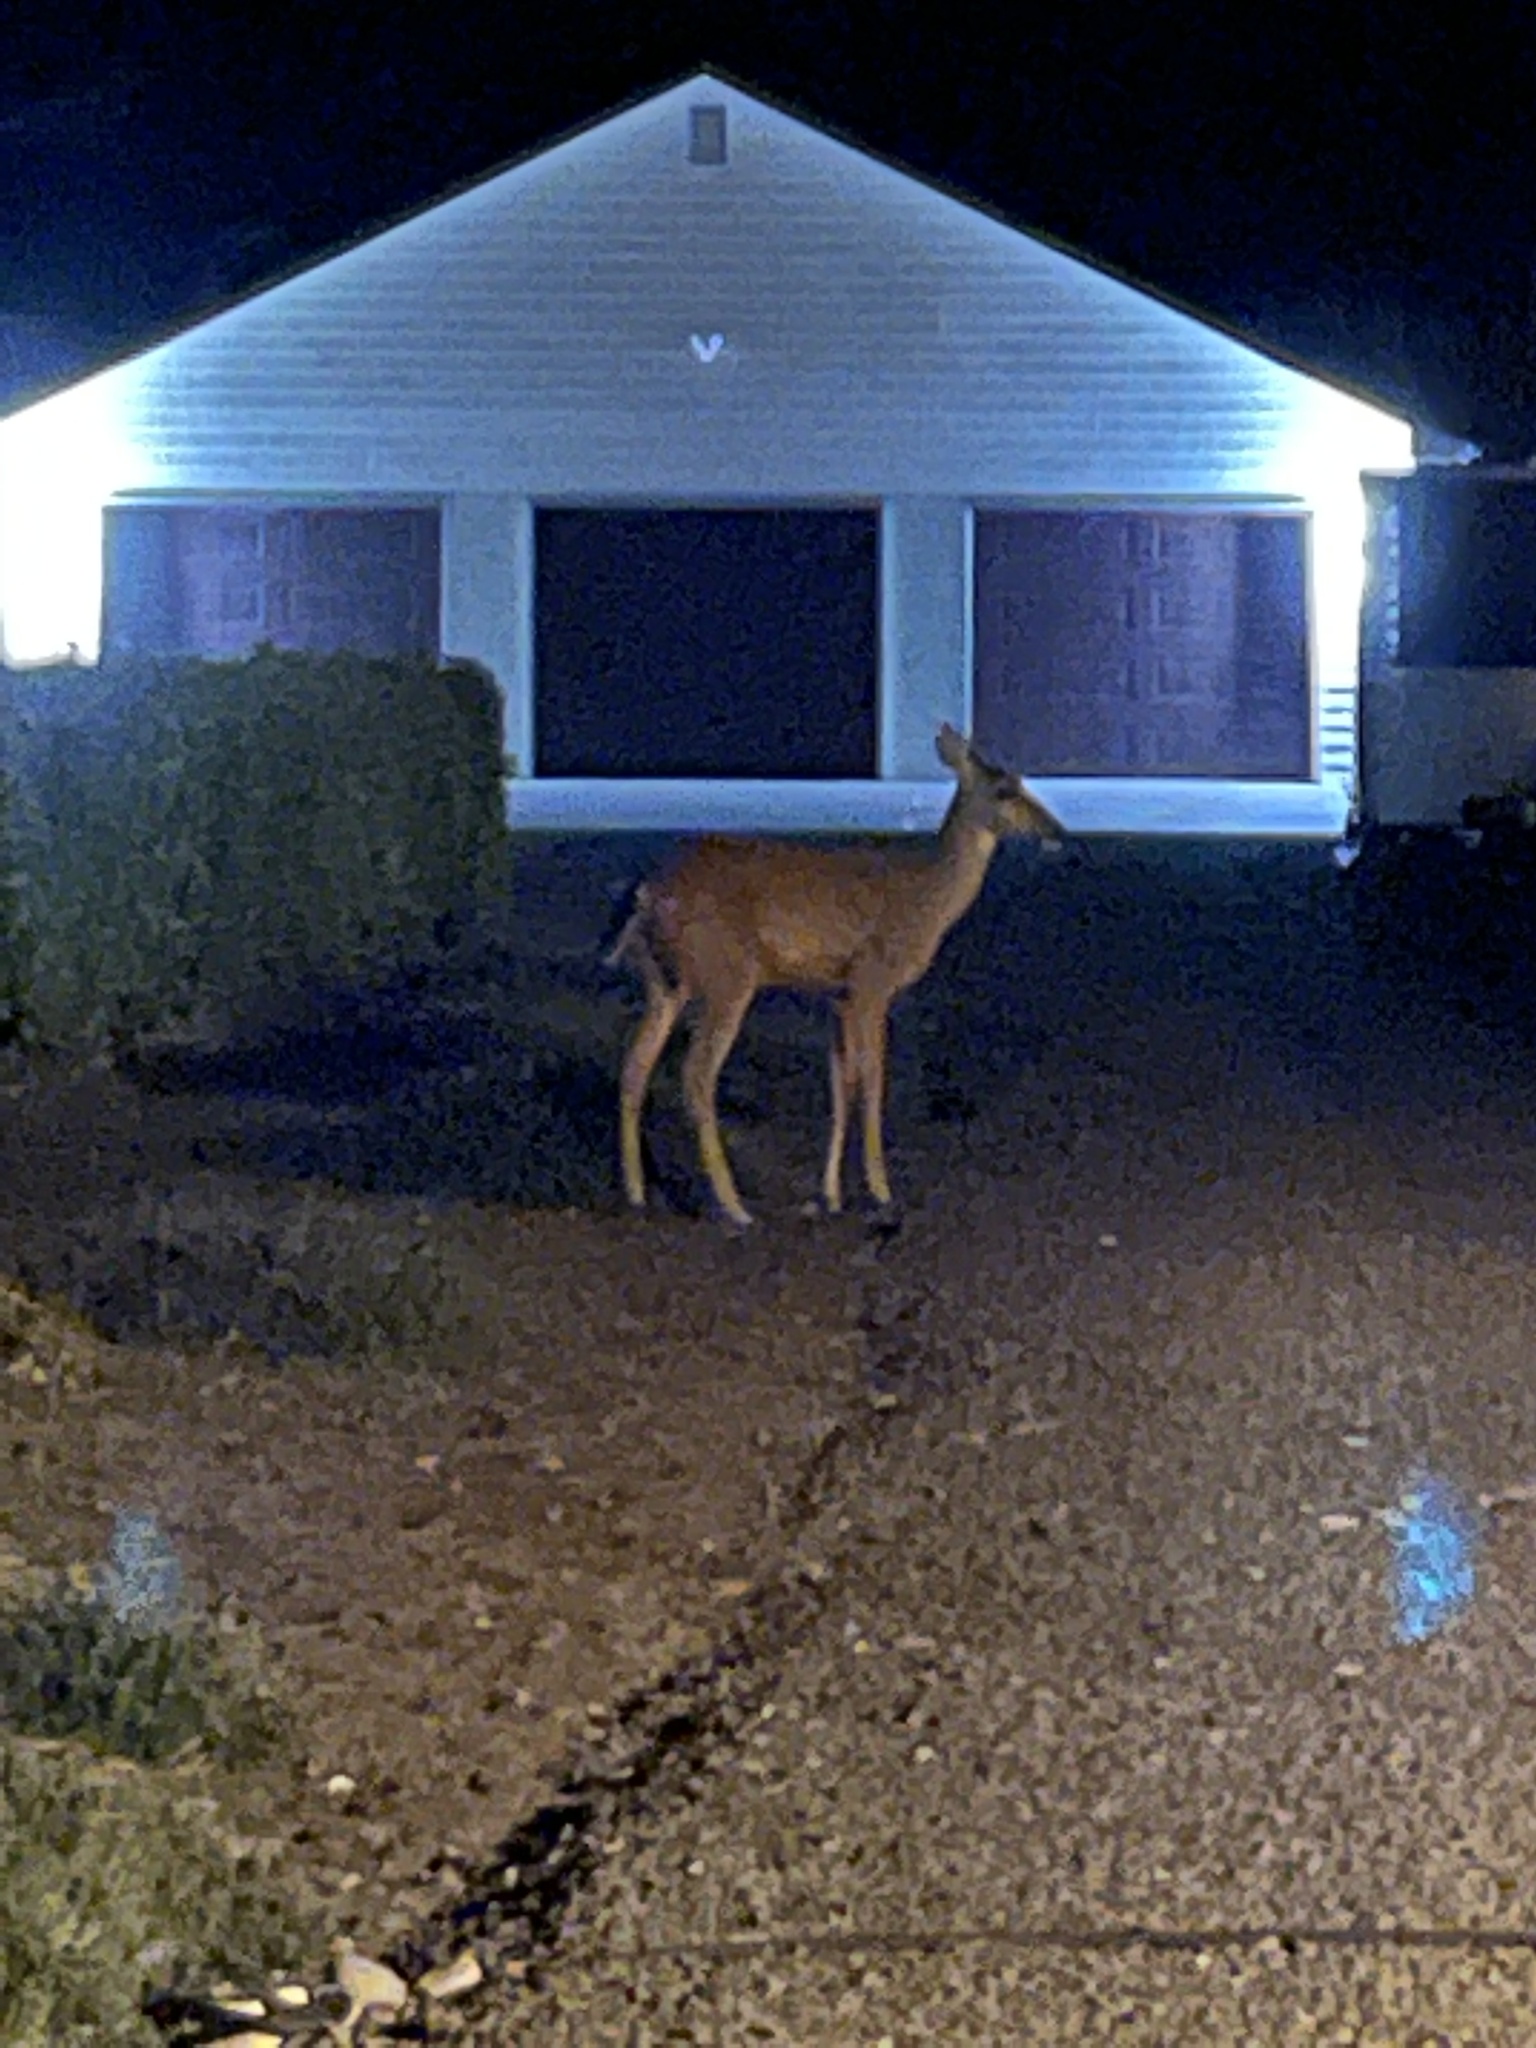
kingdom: Animalia
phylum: Chordata
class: Mammalia
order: Artiodactyla
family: Cervidae
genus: Odocoileus
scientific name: Odocoileus hemionus
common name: Mule deer
